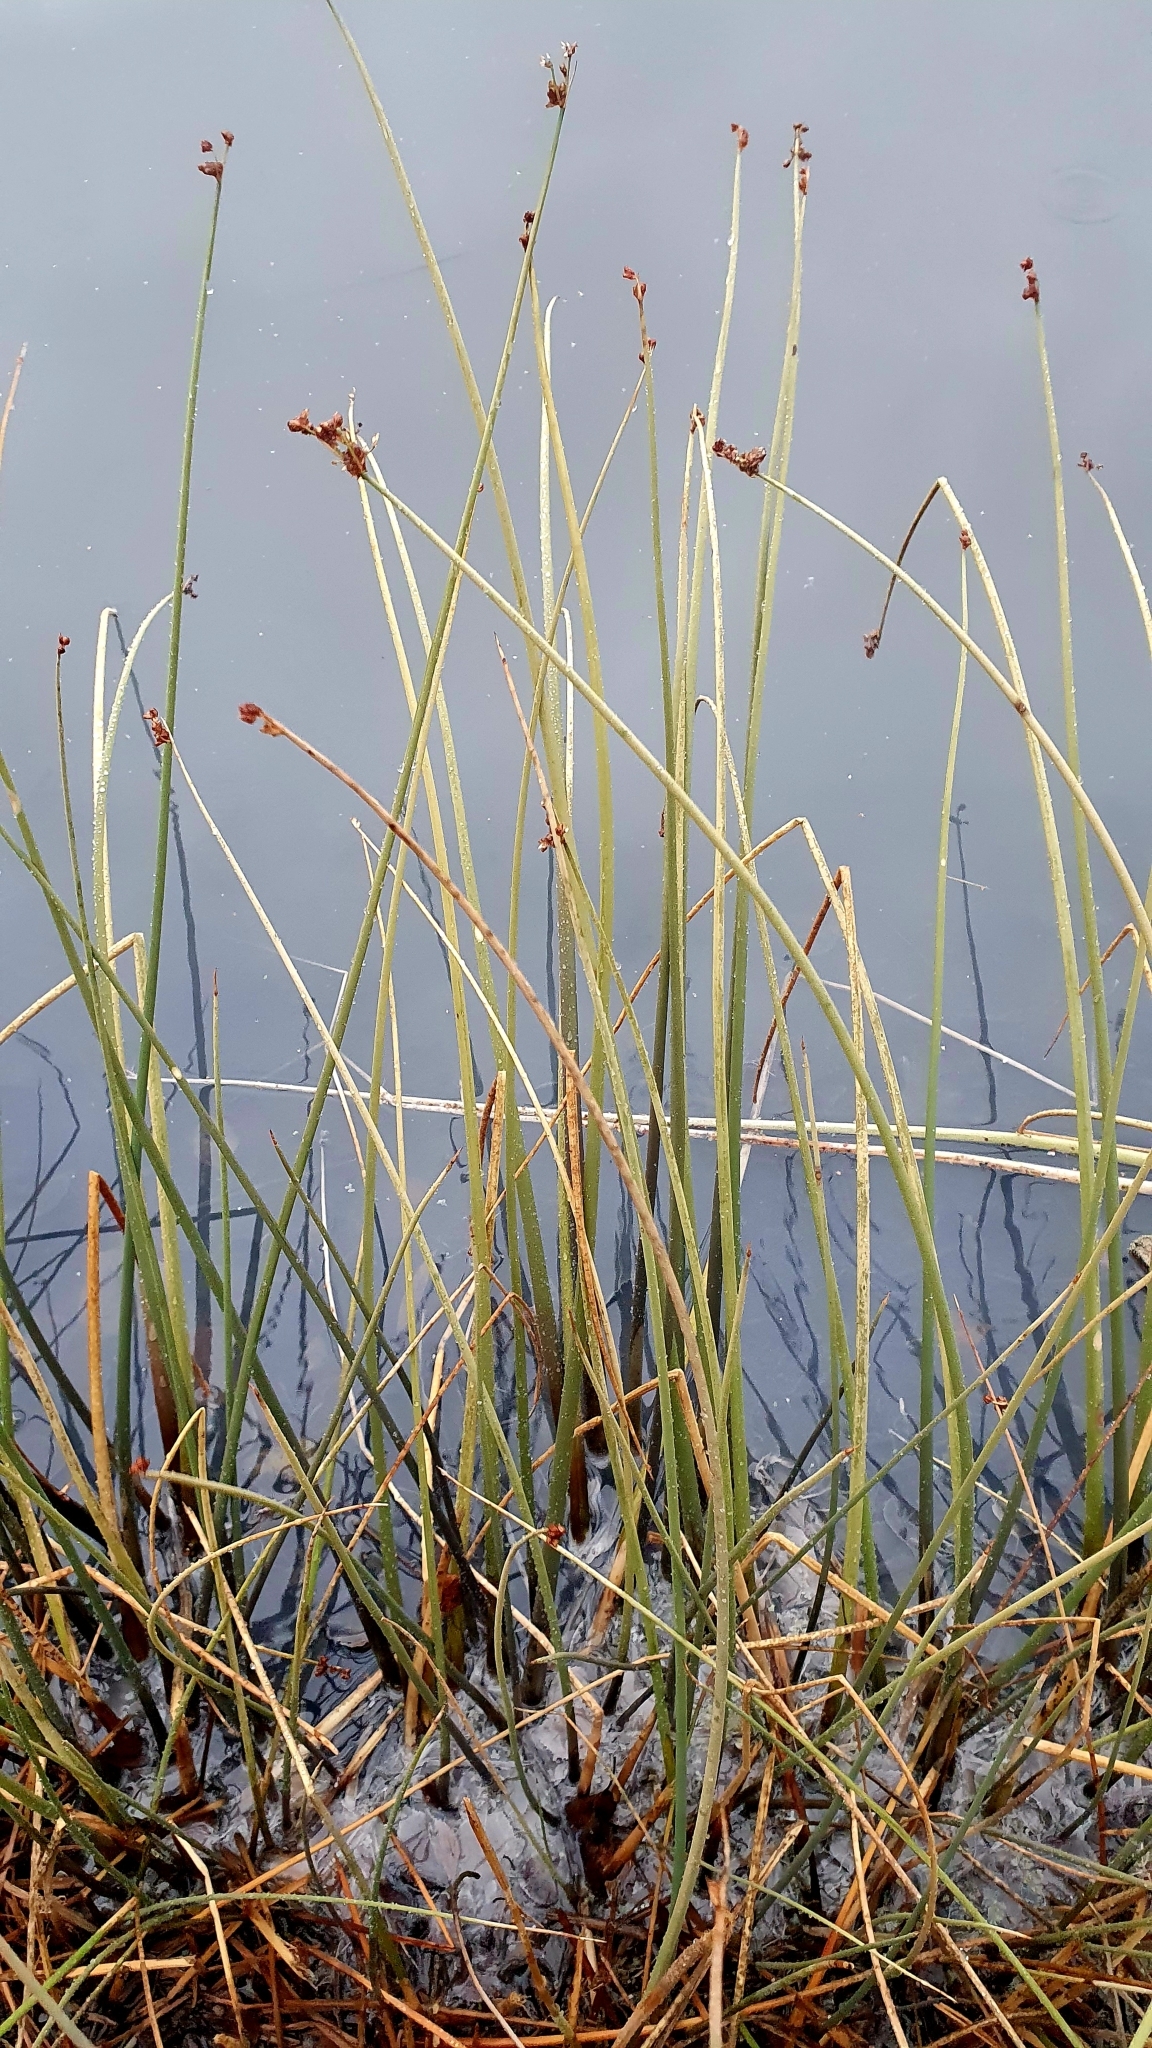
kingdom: Plantae
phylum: Tracheophyta
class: Liliopsida
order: Poales
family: Cyperaceae
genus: Schoenoplectus
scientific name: Schoenoplectus lacustris
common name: Common club-rush
